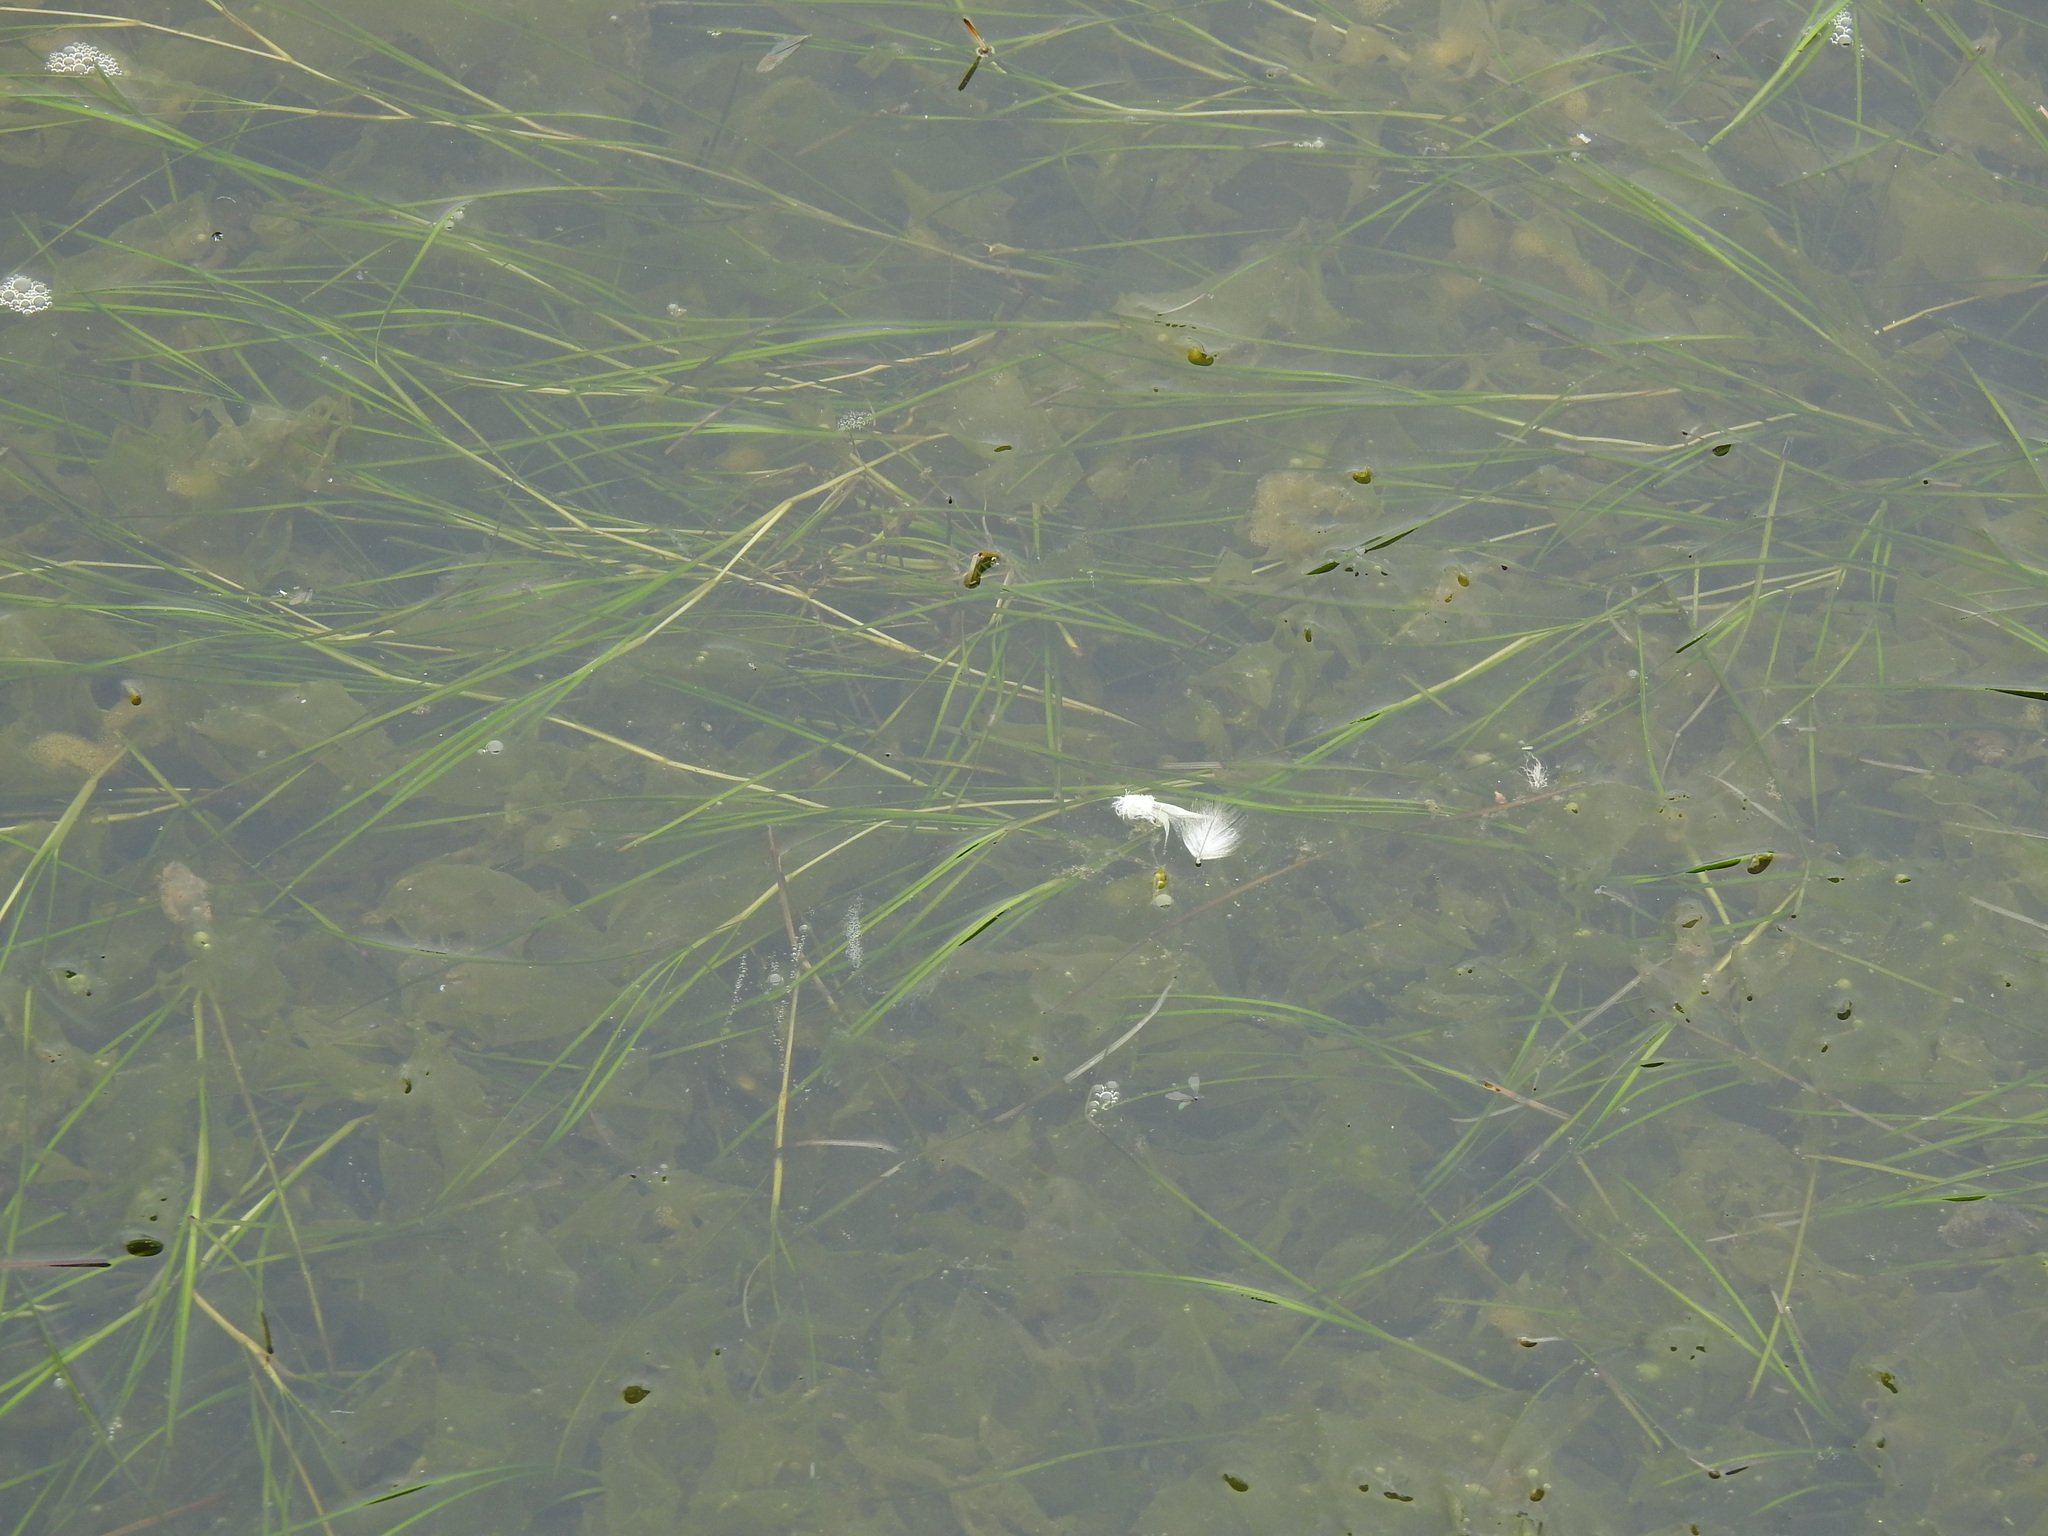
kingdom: Plantae
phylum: Tracheophyta
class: Liliopsida
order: Alismatales
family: Ruppiaceae
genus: Ruppia
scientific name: Ruppia cirrhosa
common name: Spiral tasselweed
